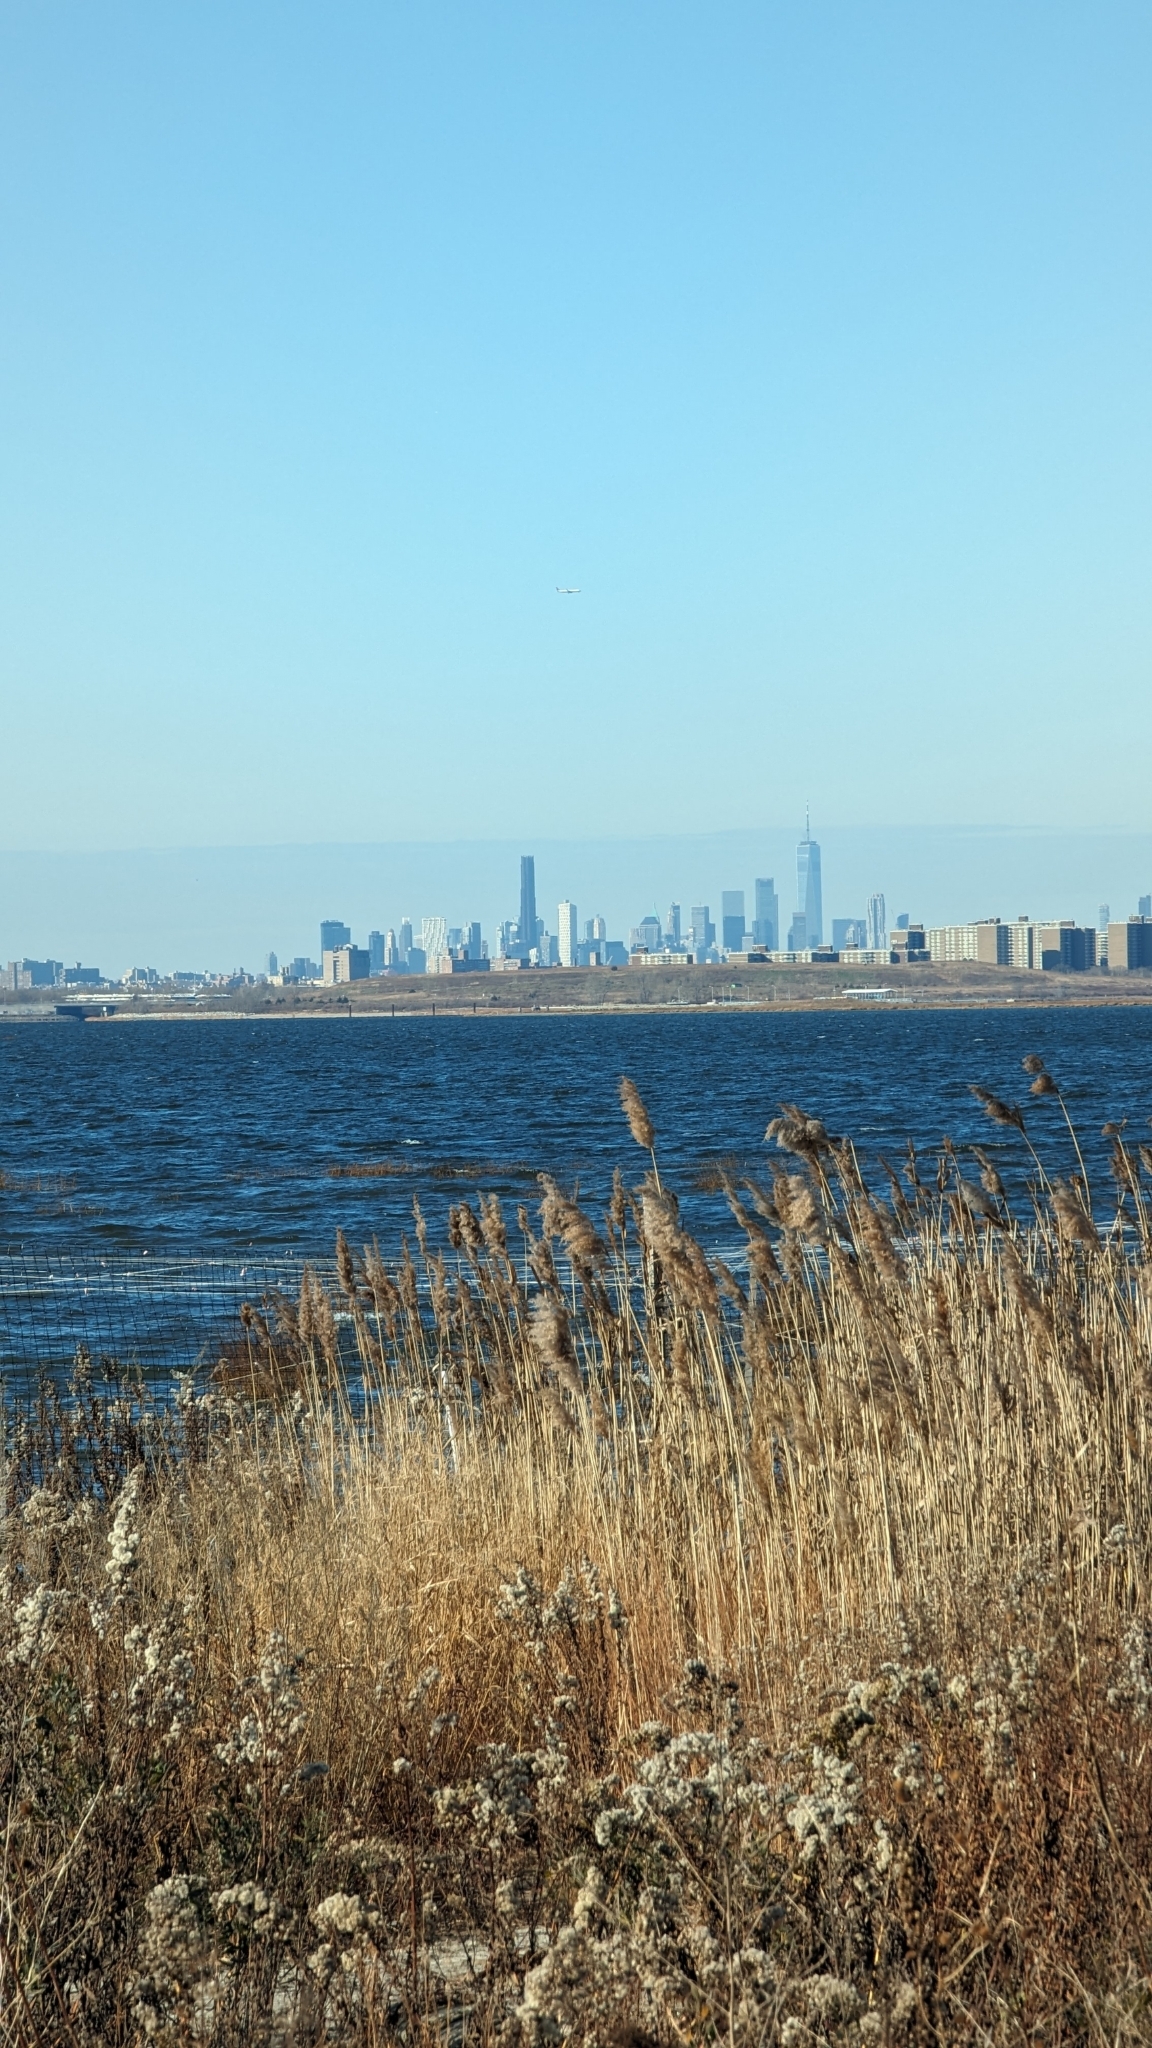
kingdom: Plantae
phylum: Tracheophyta
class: Liliopsida
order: Poales
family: Poaceae
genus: Phragmites
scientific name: Phragmites australis
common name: Common reed
